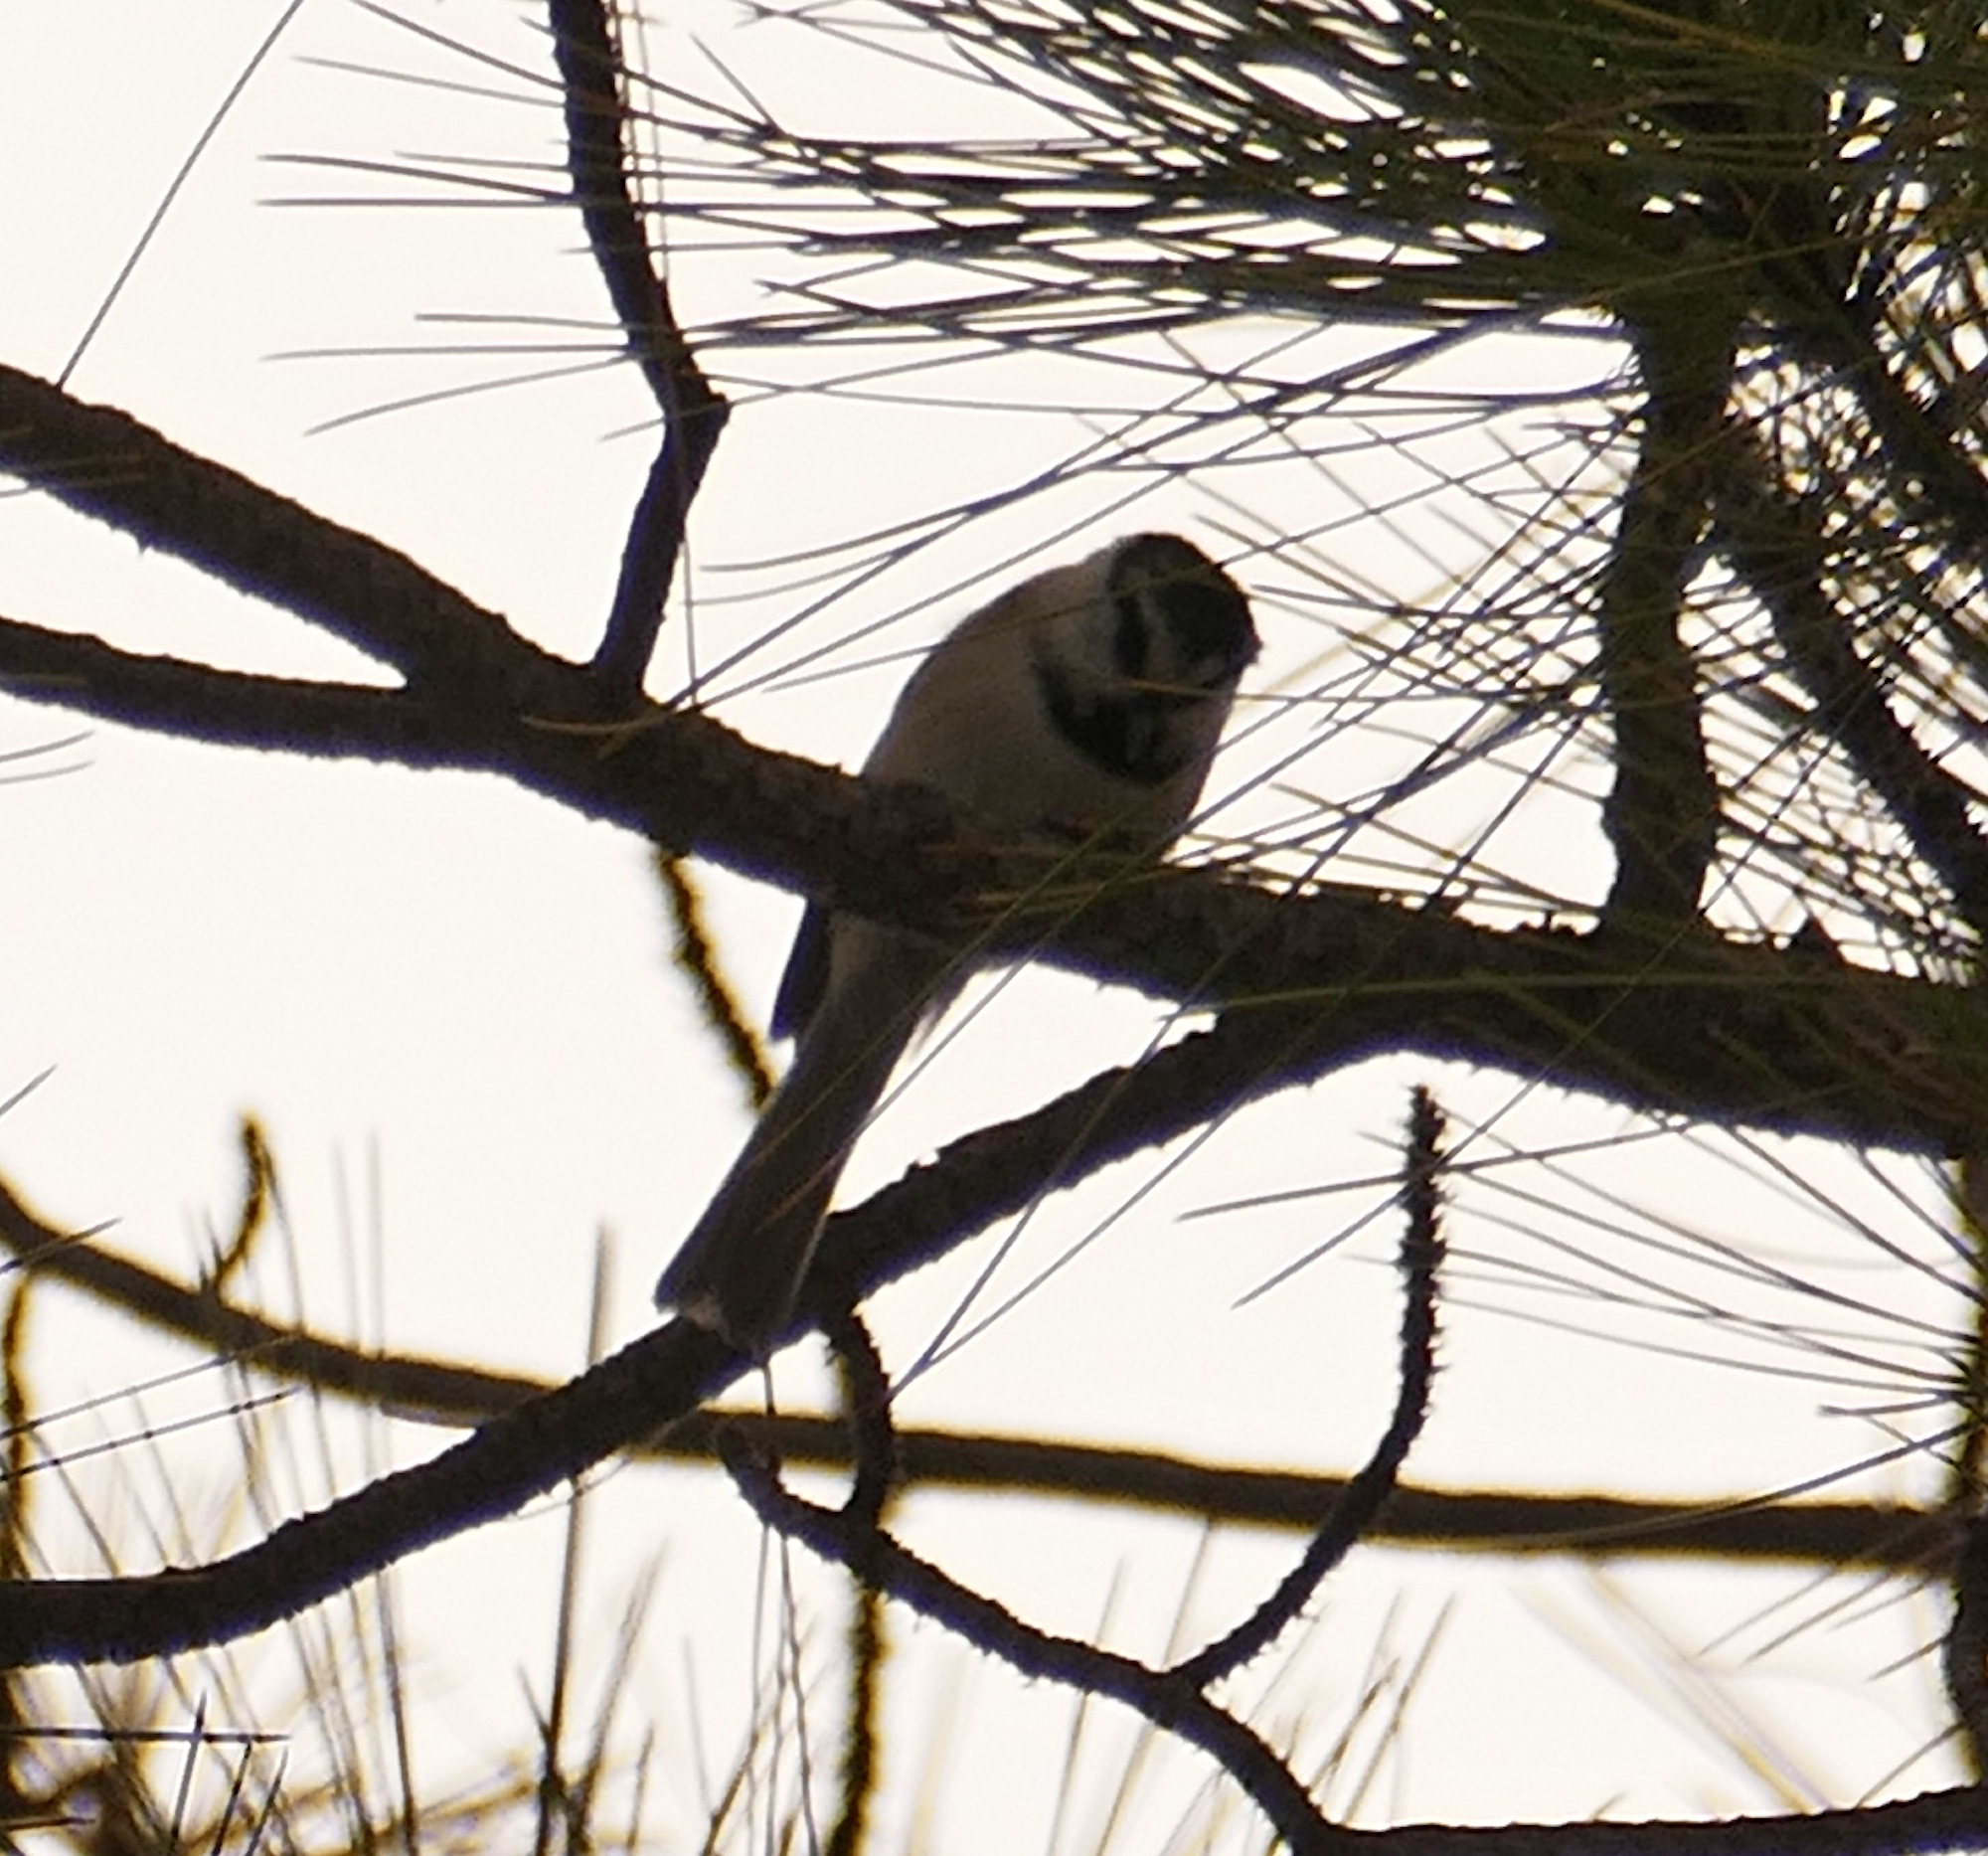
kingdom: Animalia
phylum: Chordata
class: Aves
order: Passeriformes
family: Paridae
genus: Poecile
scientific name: Poecile gambeli
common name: Mountain chickadee
